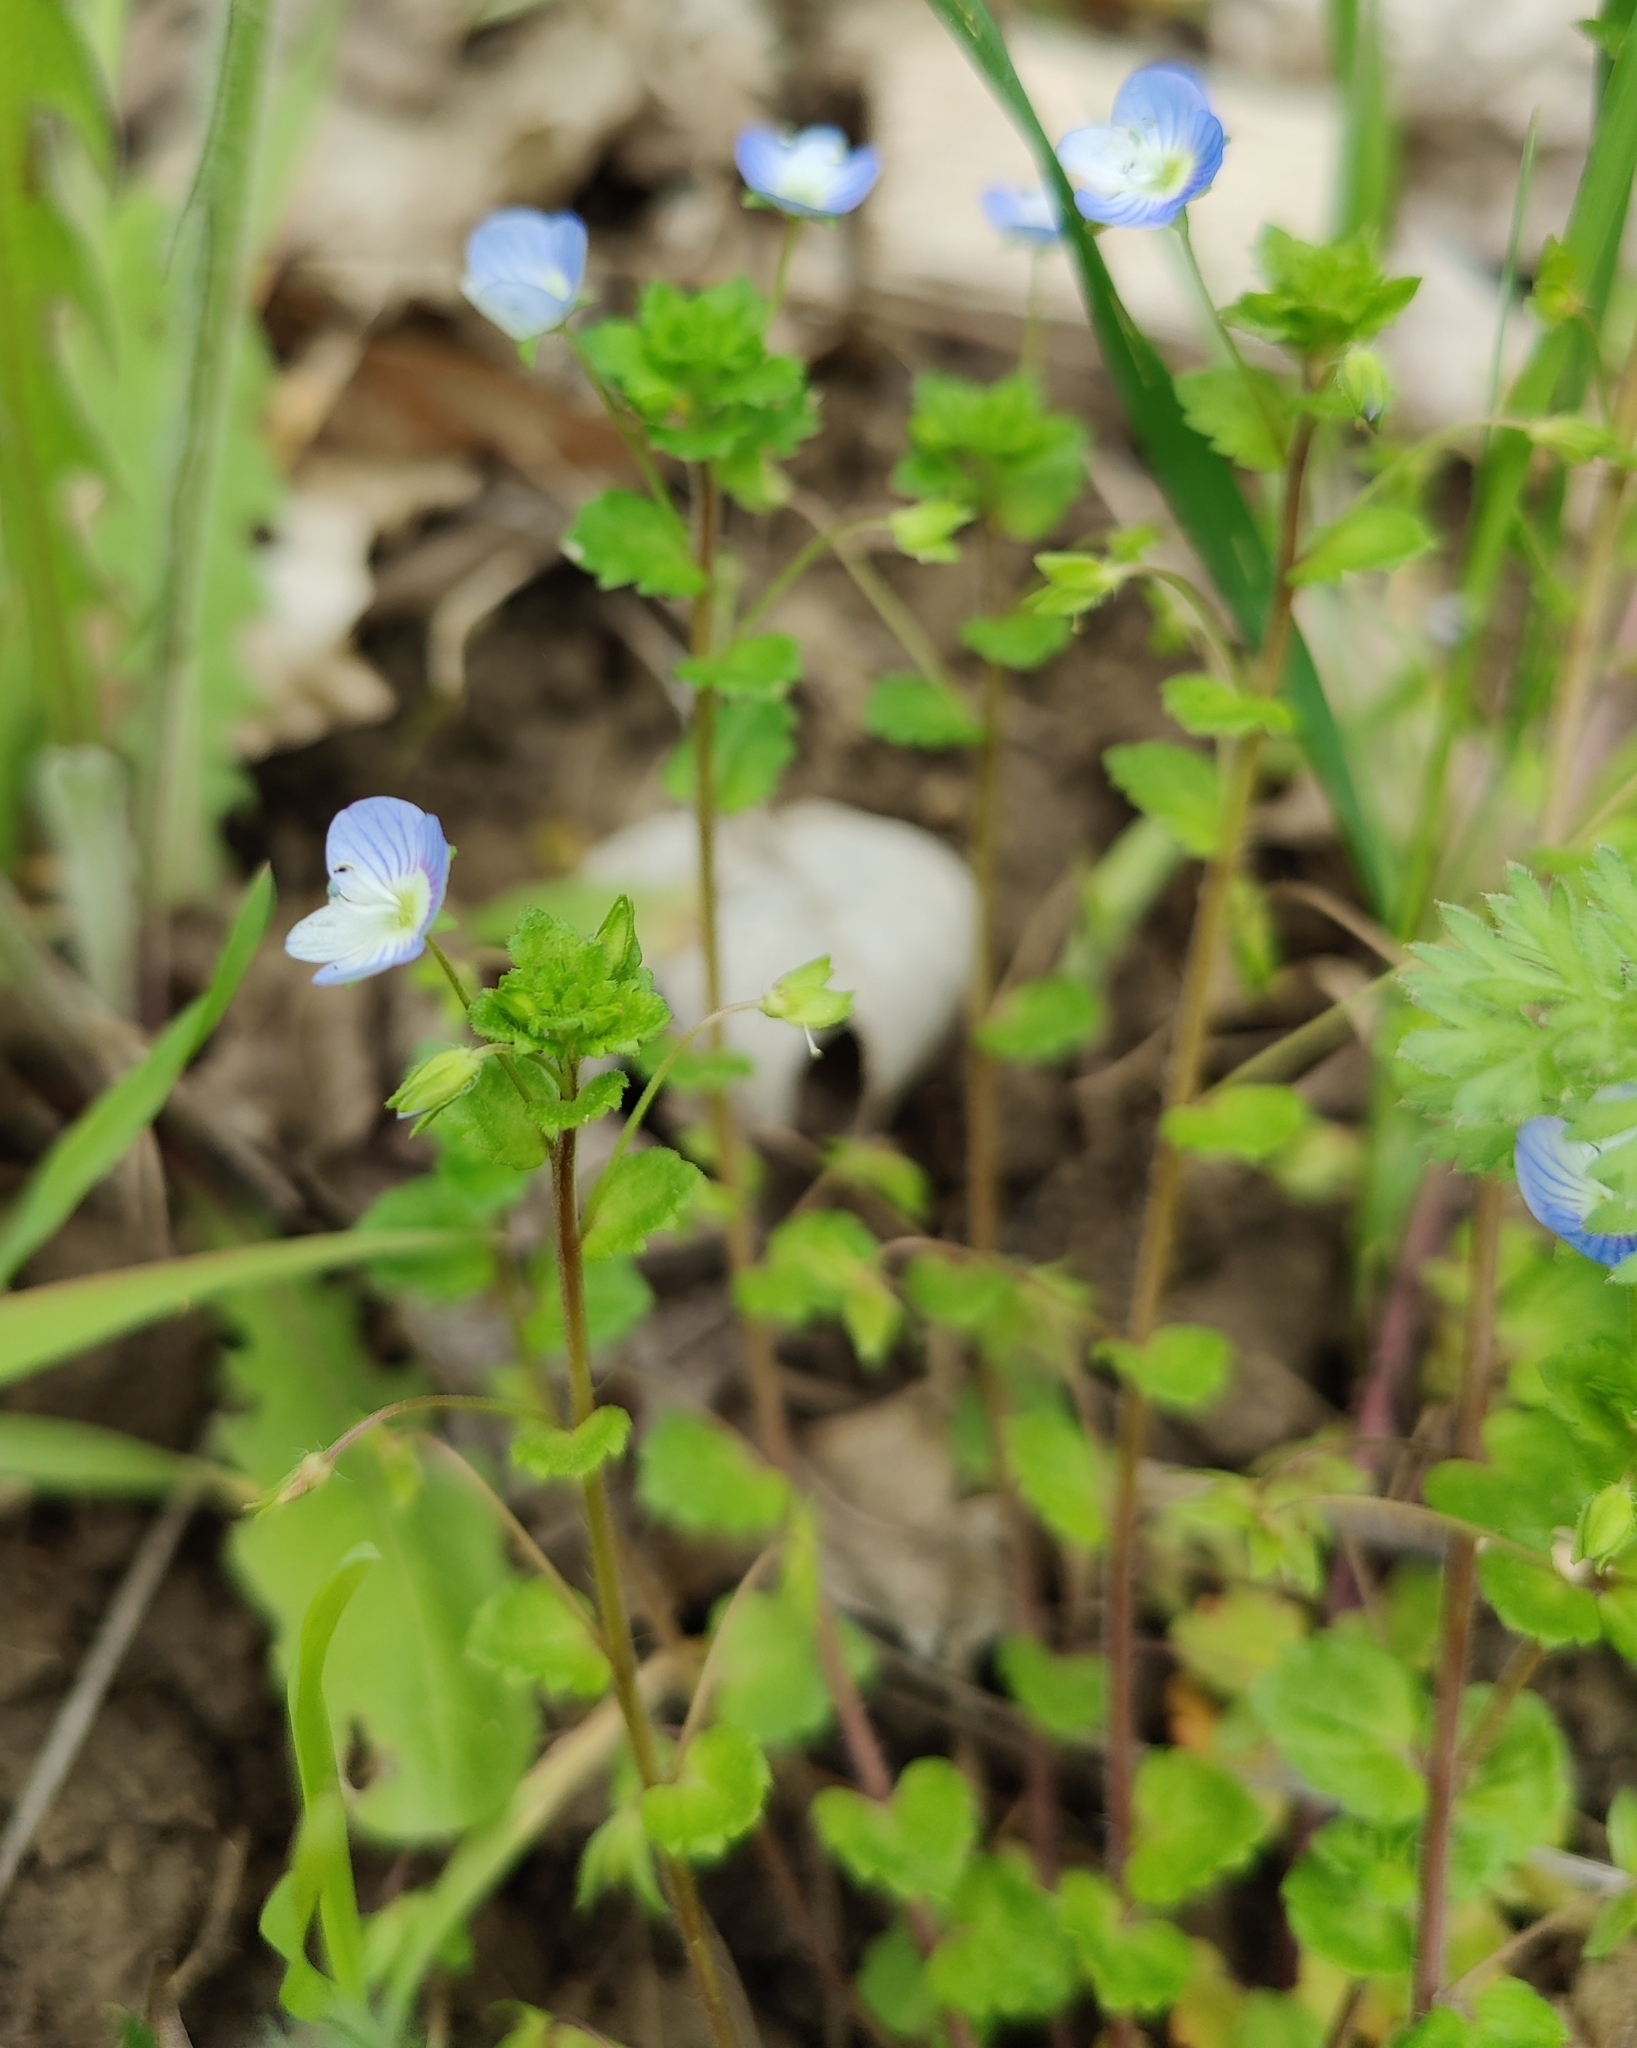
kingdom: Plantae
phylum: Tracheophyta
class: Magnoliopsida
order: Lamiales
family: Plantaginaceae
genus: Veronica
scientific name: Veronica persica
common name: Common field-speedwell
